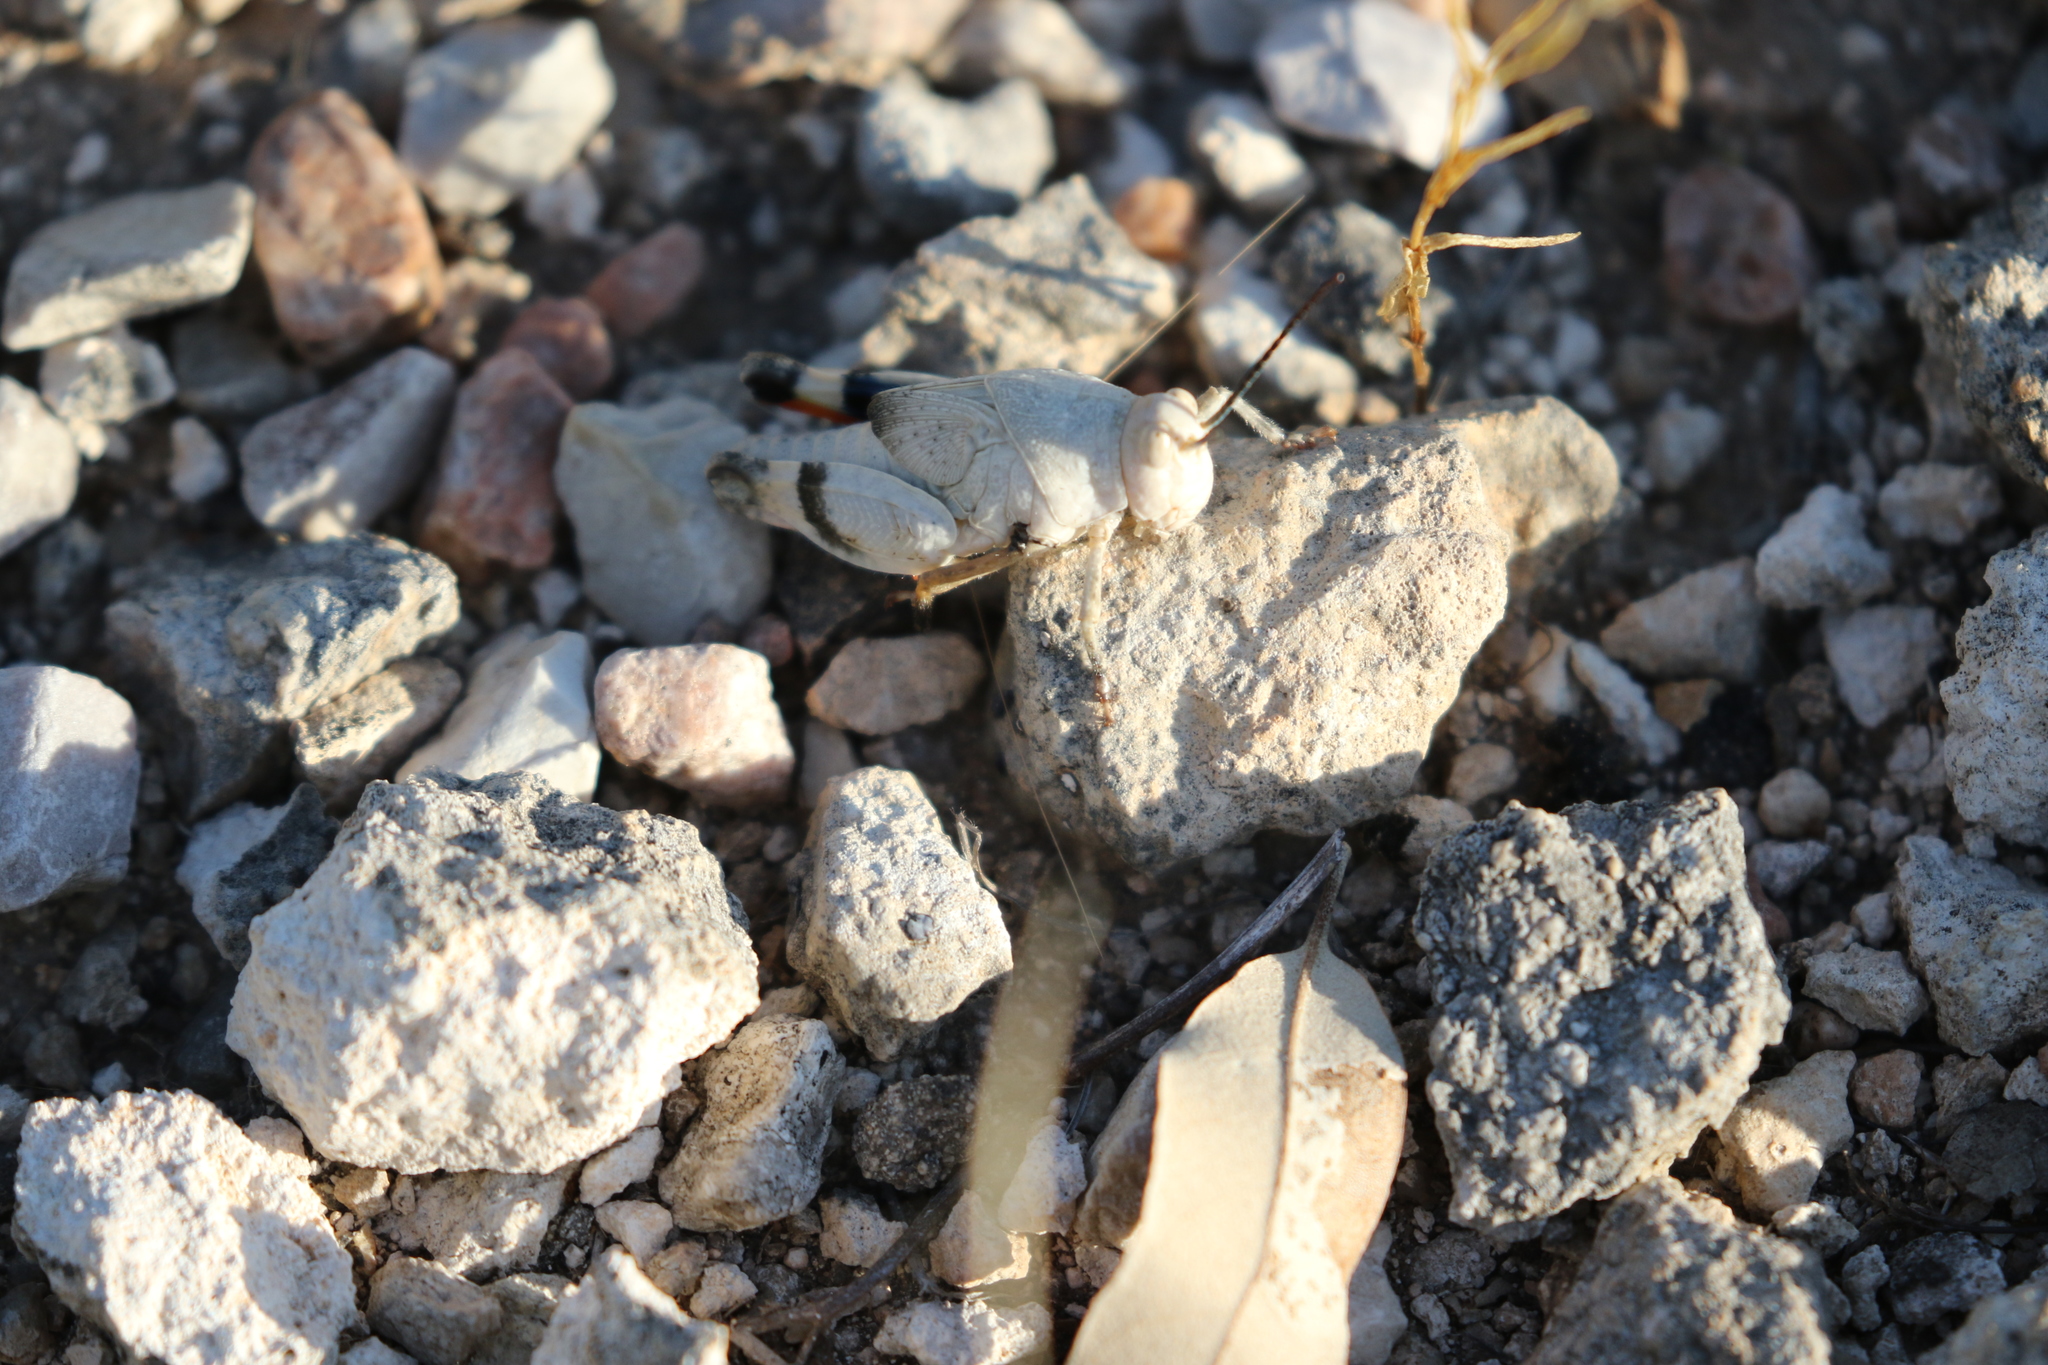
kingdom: Animalia
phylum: Arthropoda
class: Insecta
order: Orthoptera
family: Acrididae
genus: Hadrotettix
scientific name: Hadrotettix trifasciatus
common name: Threebanded grasshopper
